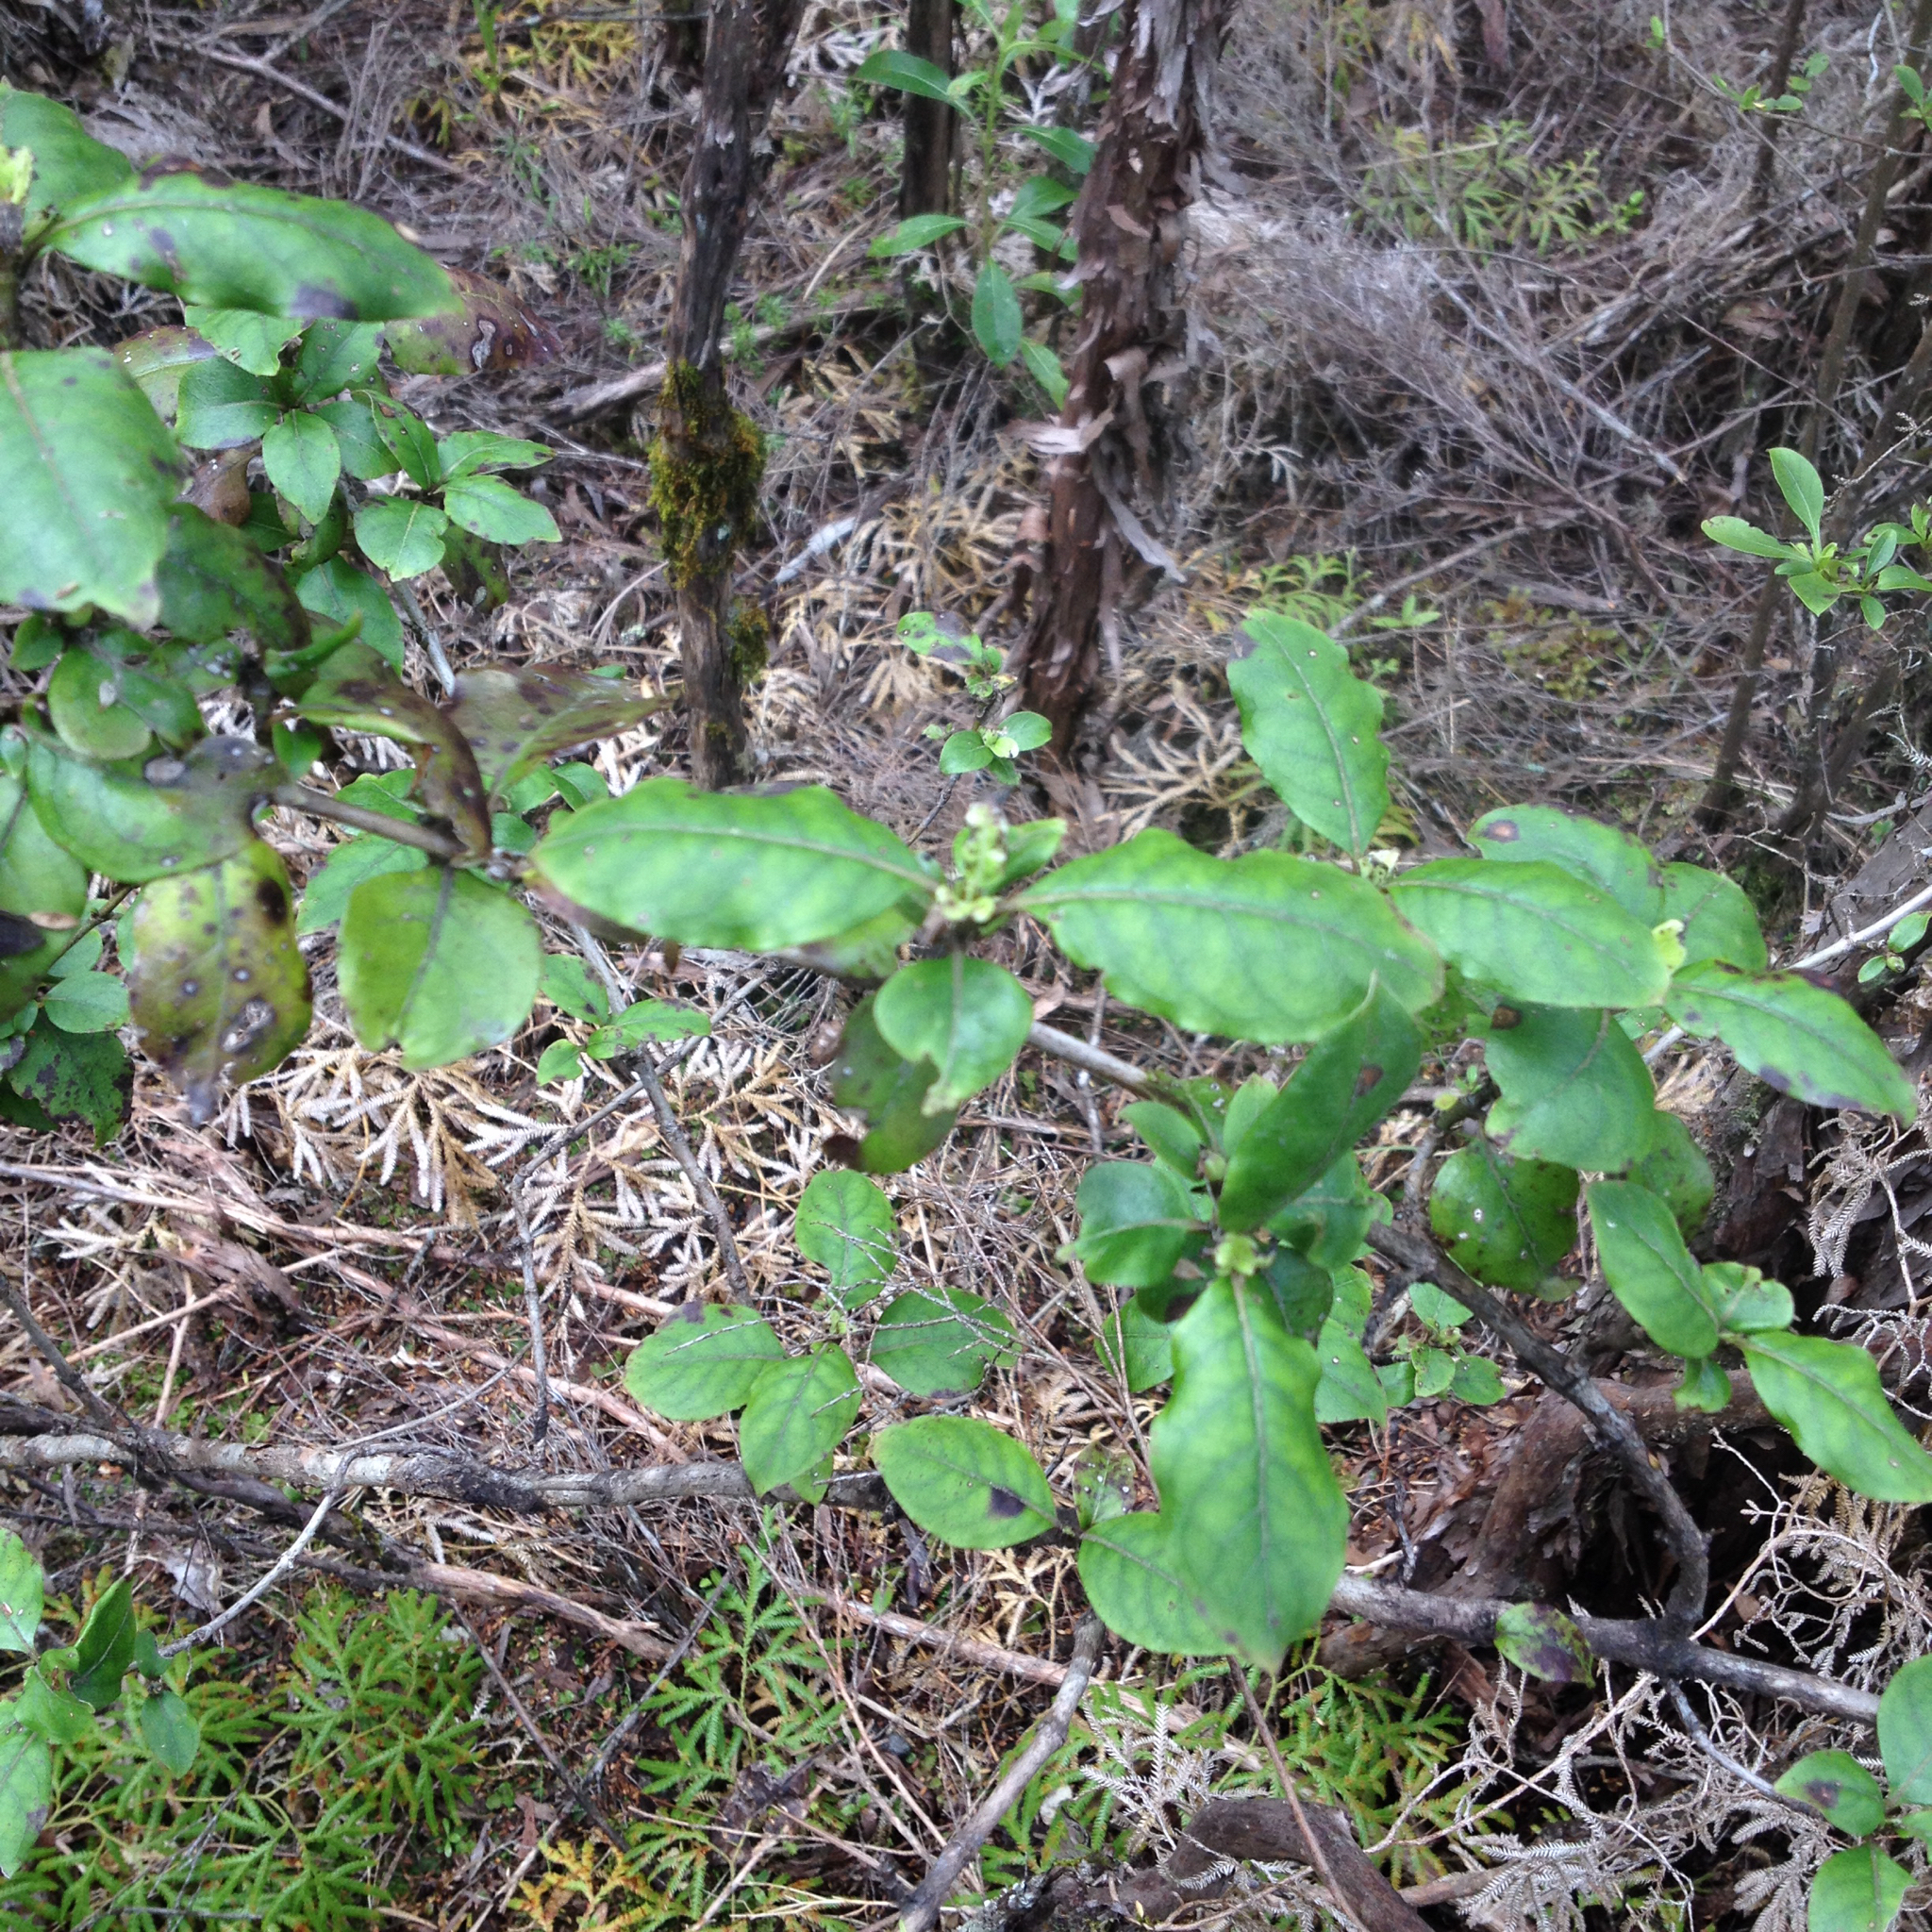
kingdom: Plantae
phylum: Tracheophyta
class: Magnoliopsida
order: Gentianales
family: Rubiaceae
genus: Coprosma
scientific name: Coprosma tenuifolia
